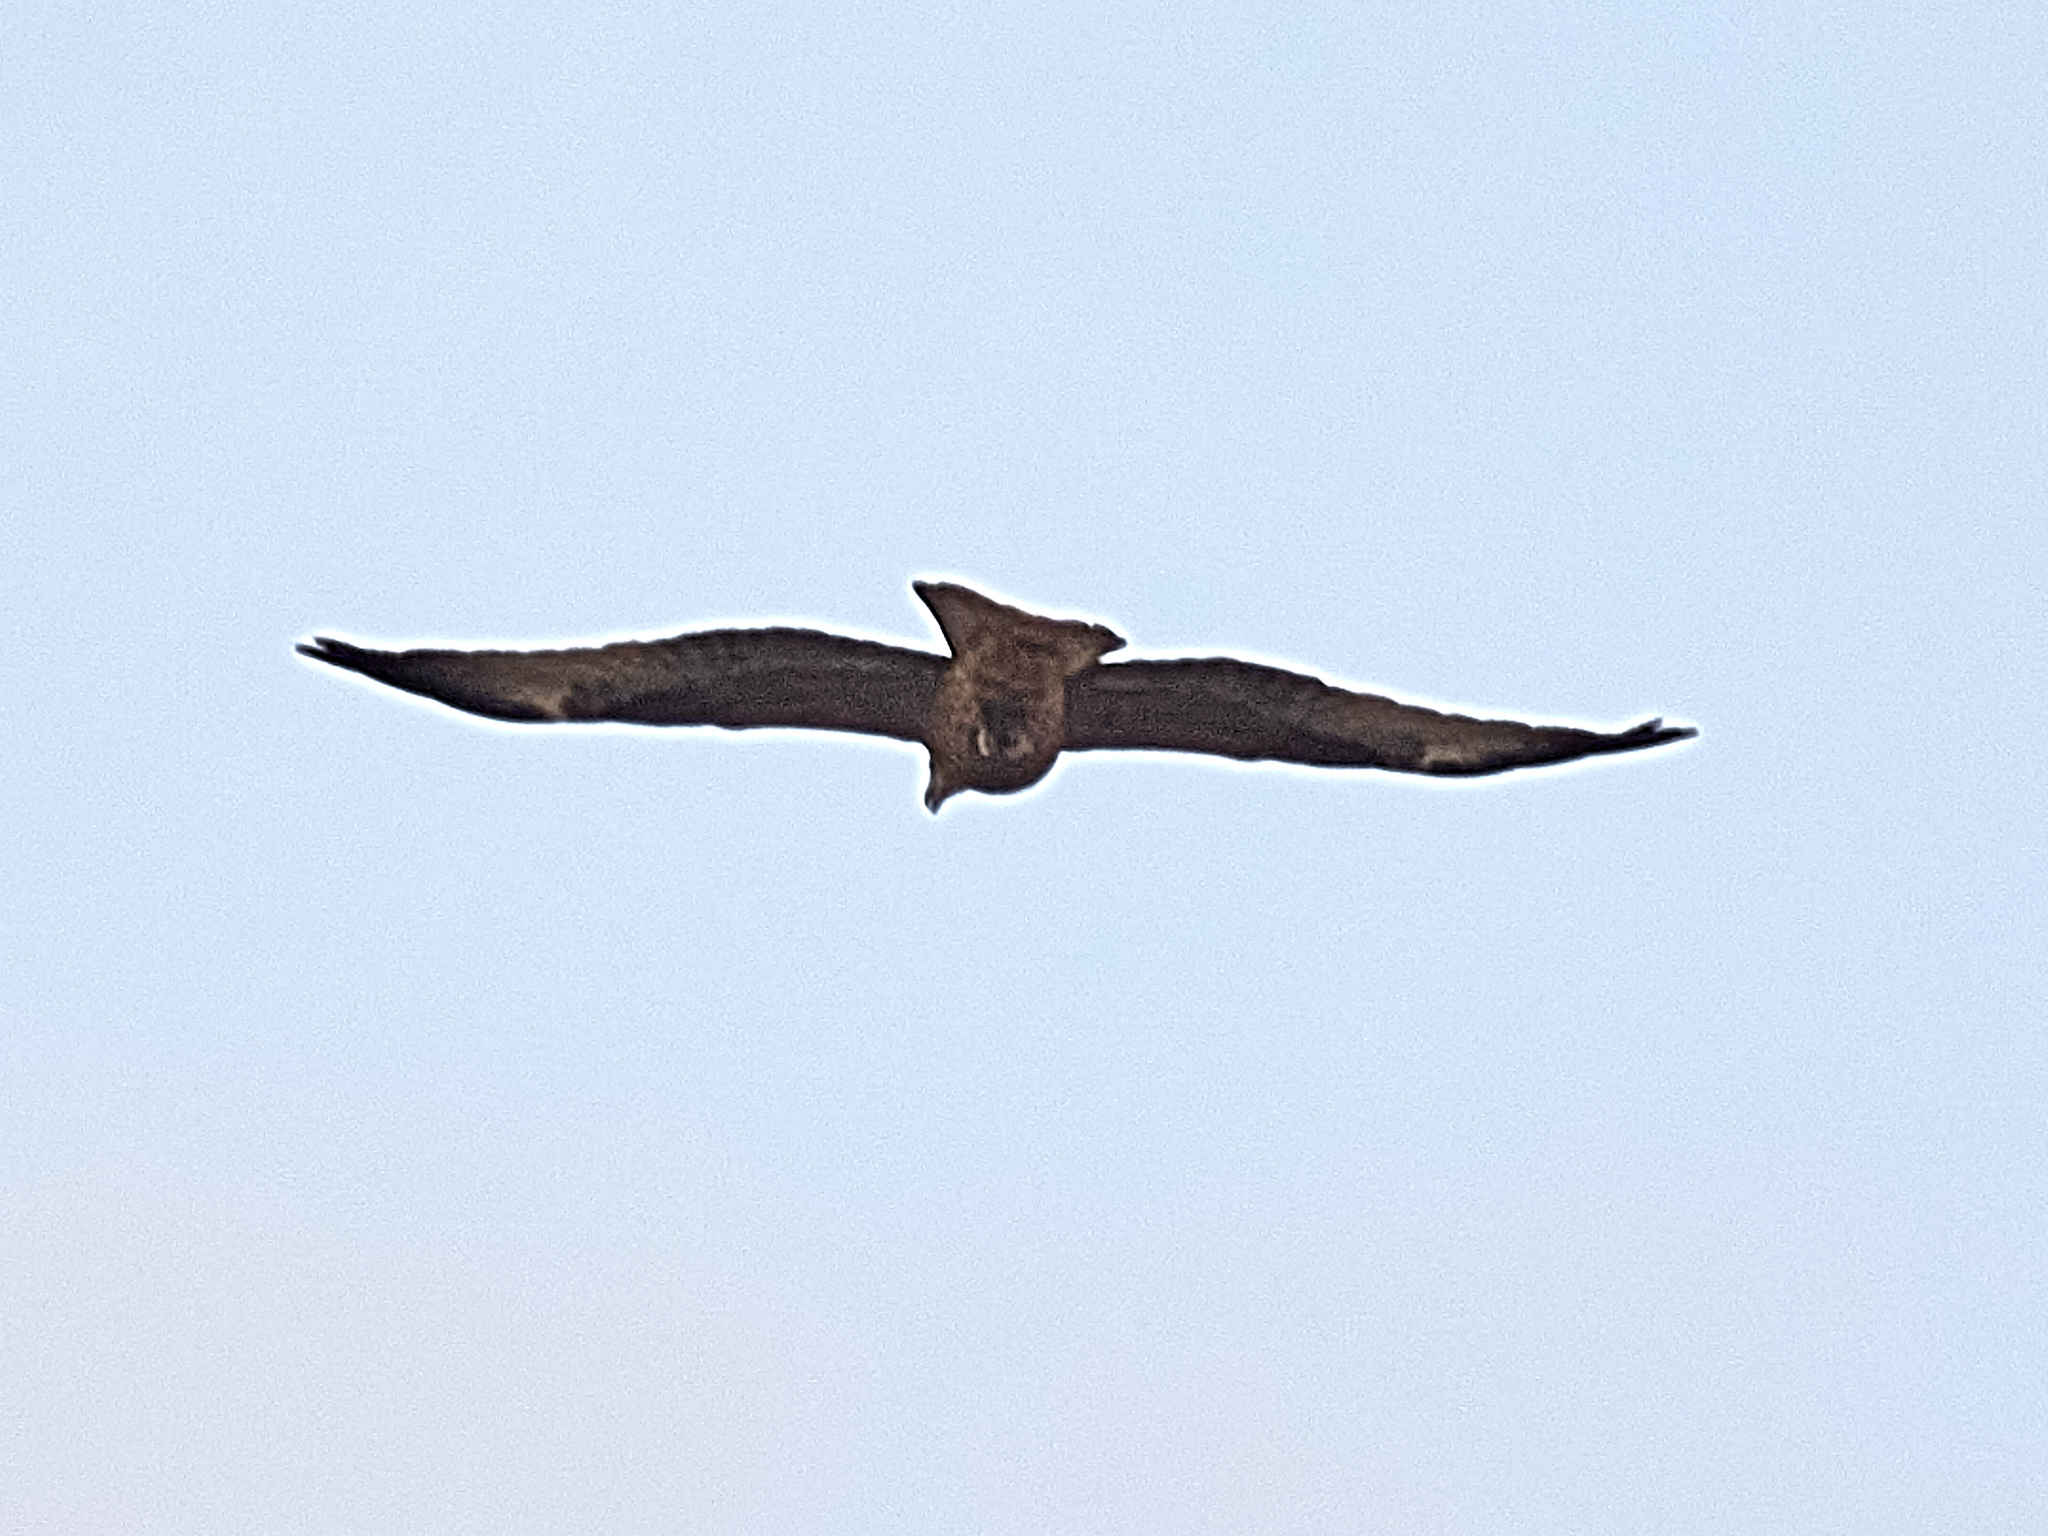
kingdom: Animalia
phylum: Chordata
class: Aves
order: Accipitriformes
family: Accipitridae
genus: Milvus
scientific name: Milvus migrans
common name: Black kite
